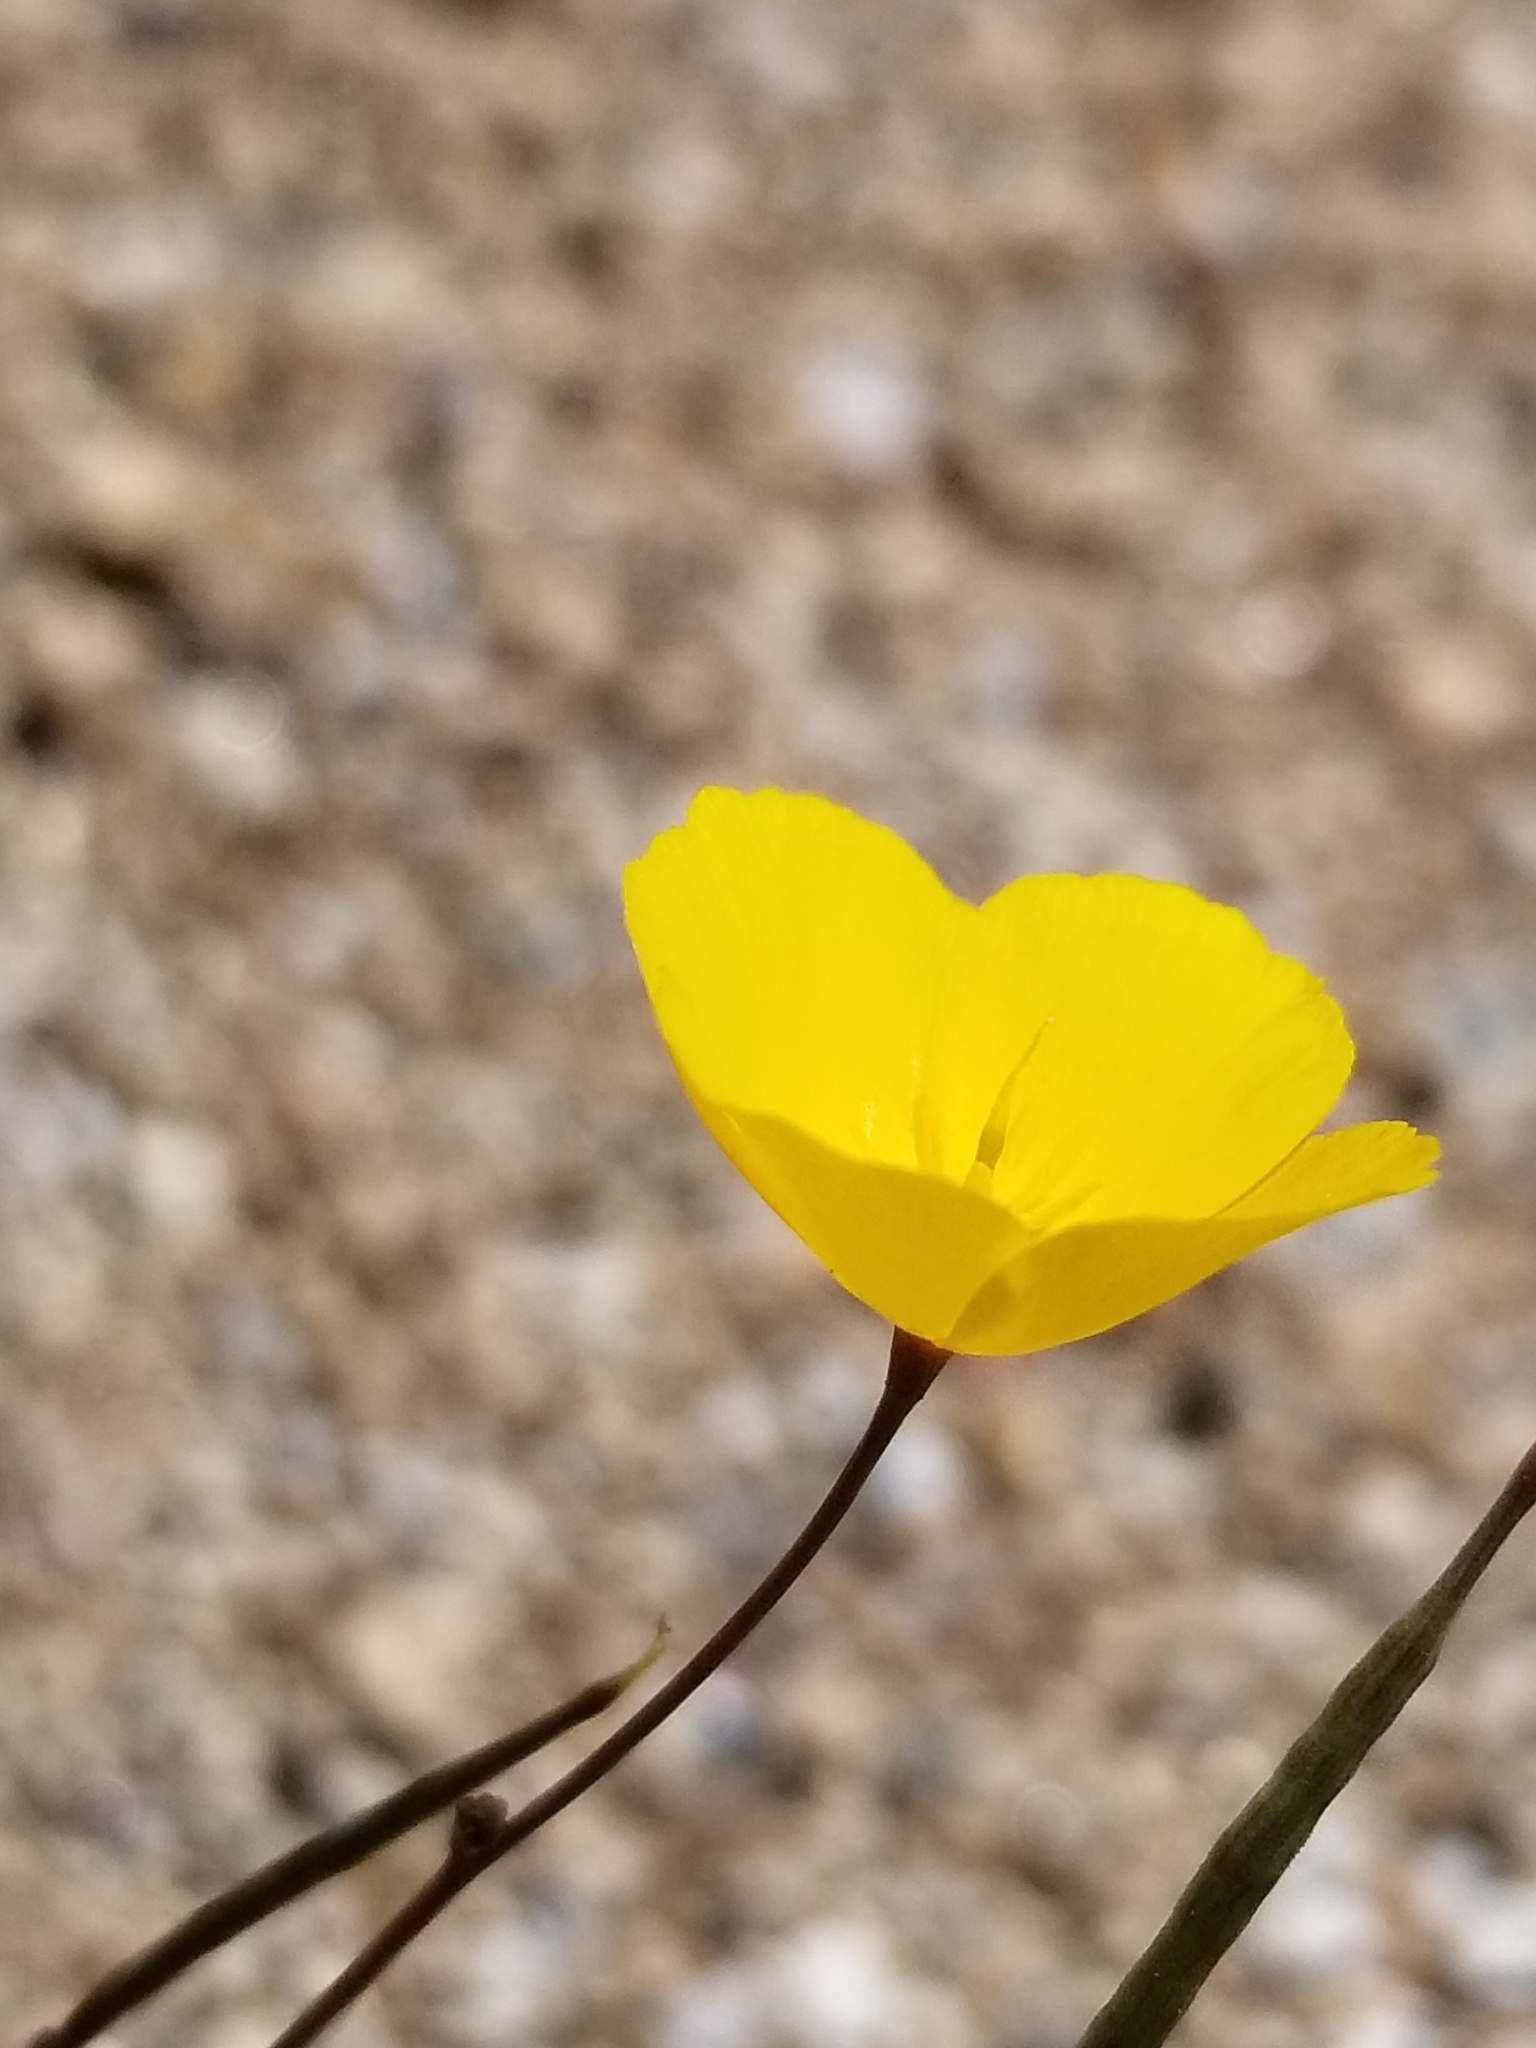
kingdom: Plantae
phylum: Tracheophyta
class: Magnoliopsida
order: Ranunculales
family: Papaveraceae
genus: Eschscholzia
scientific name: Eschscholzia parishii
